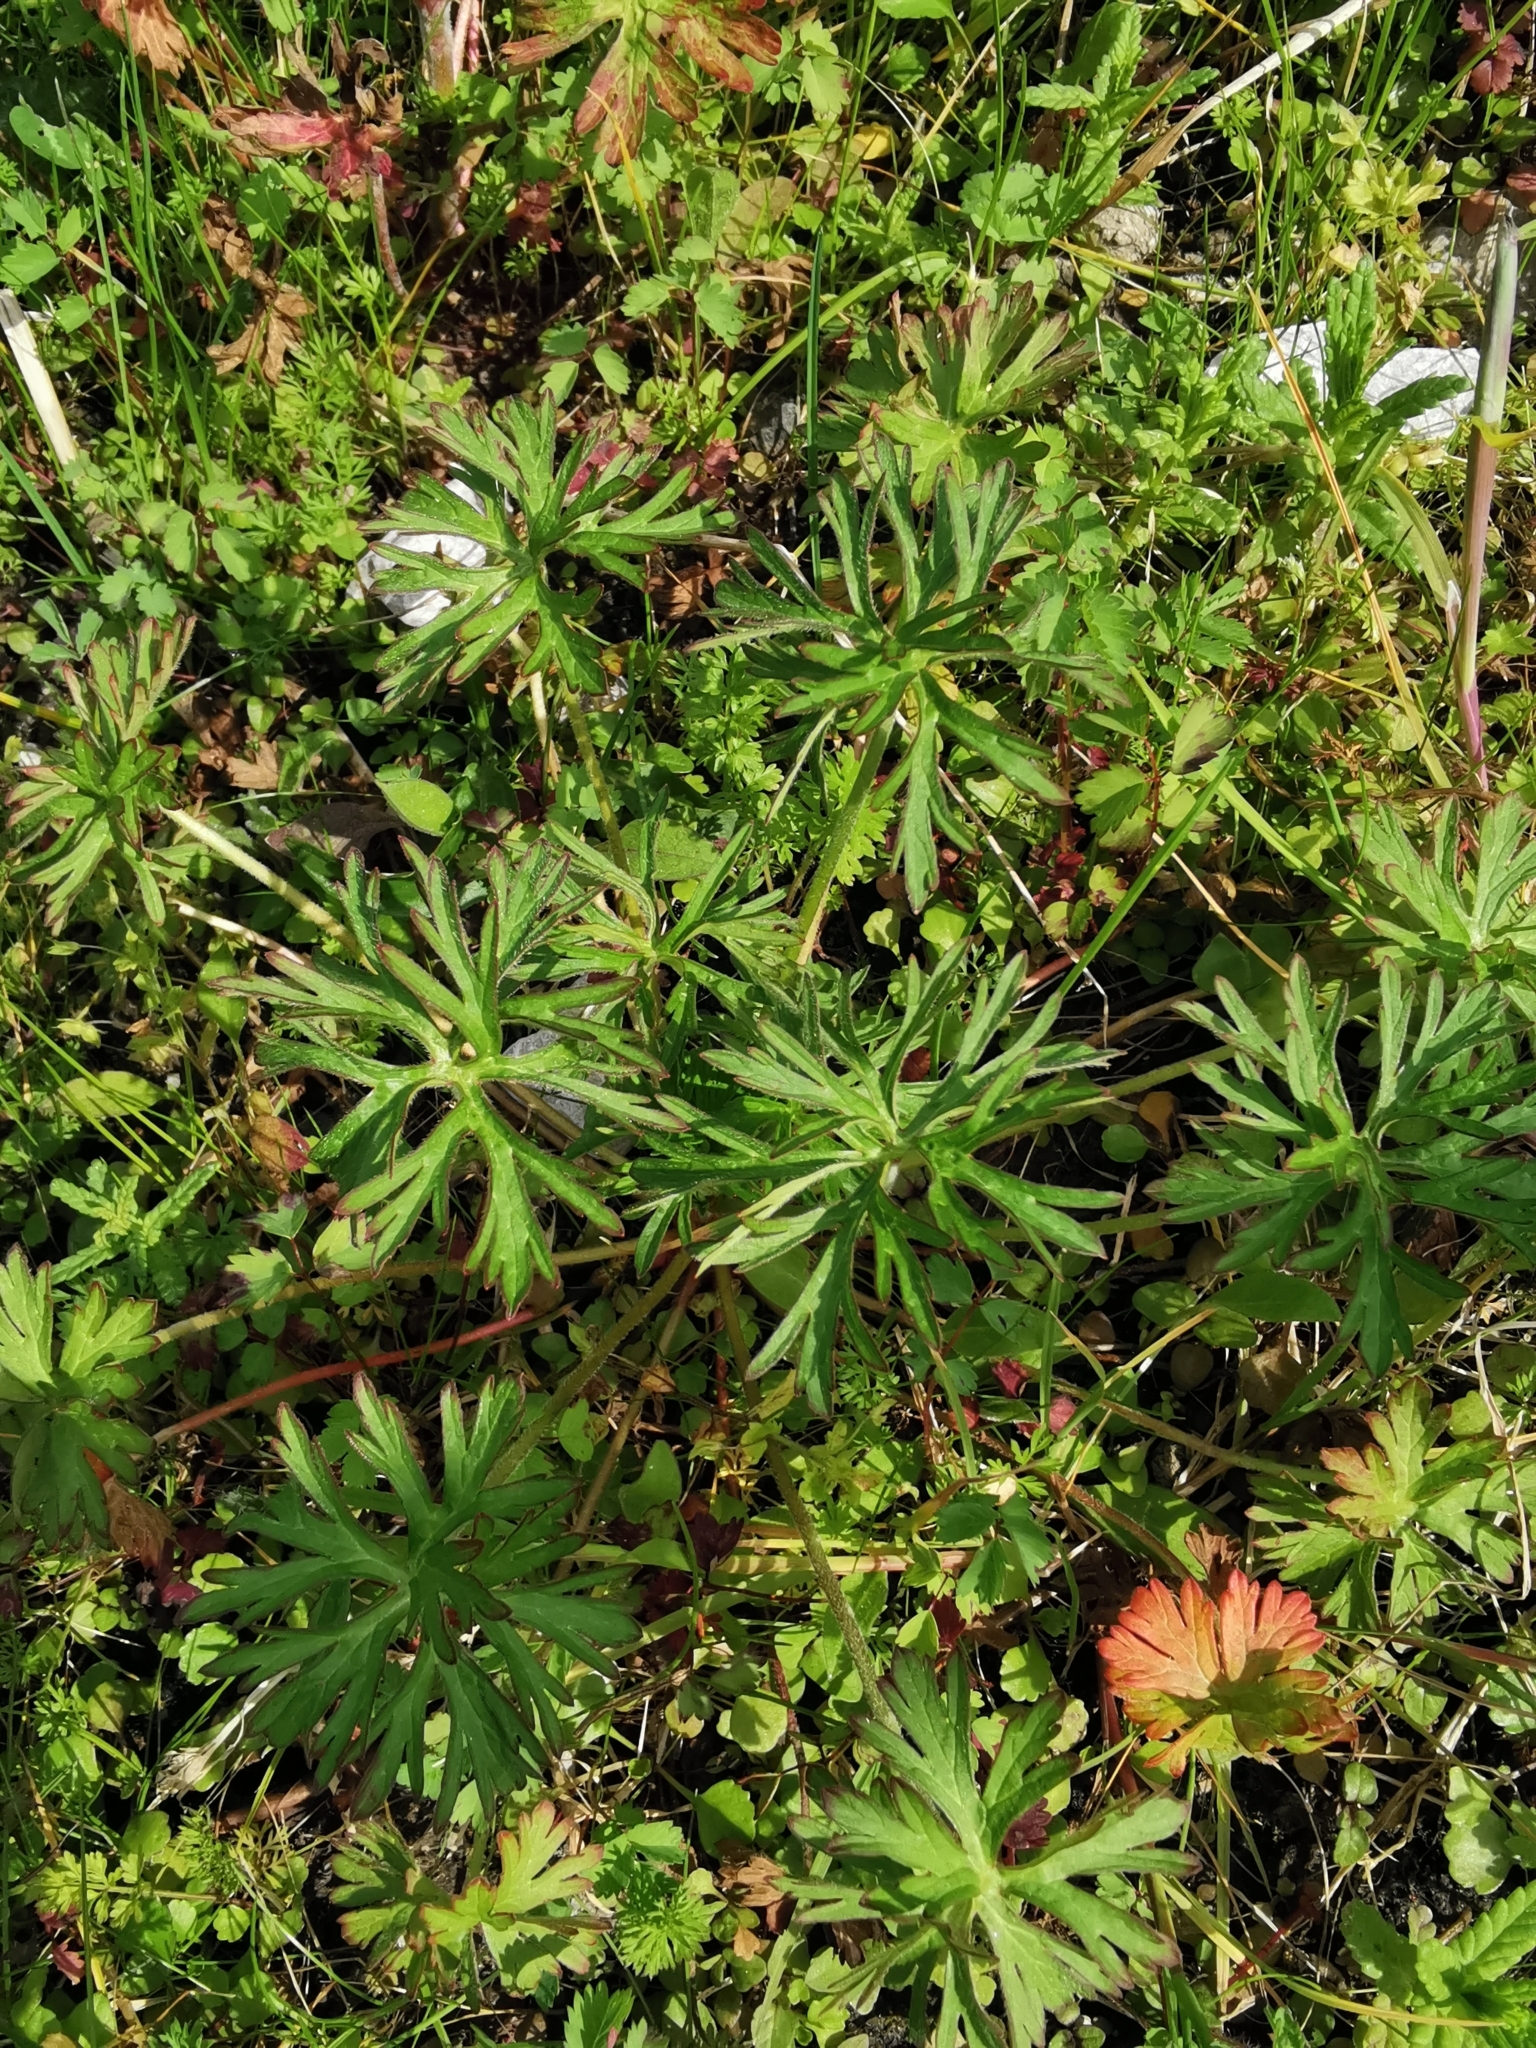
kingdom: Plantae
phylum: Tracheophyta
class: Magnoliopsida
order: Geraniales
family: Geraniaceae
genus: Geranium
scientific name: Geranium dissectum
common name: Cut-leaved crane's-bill
